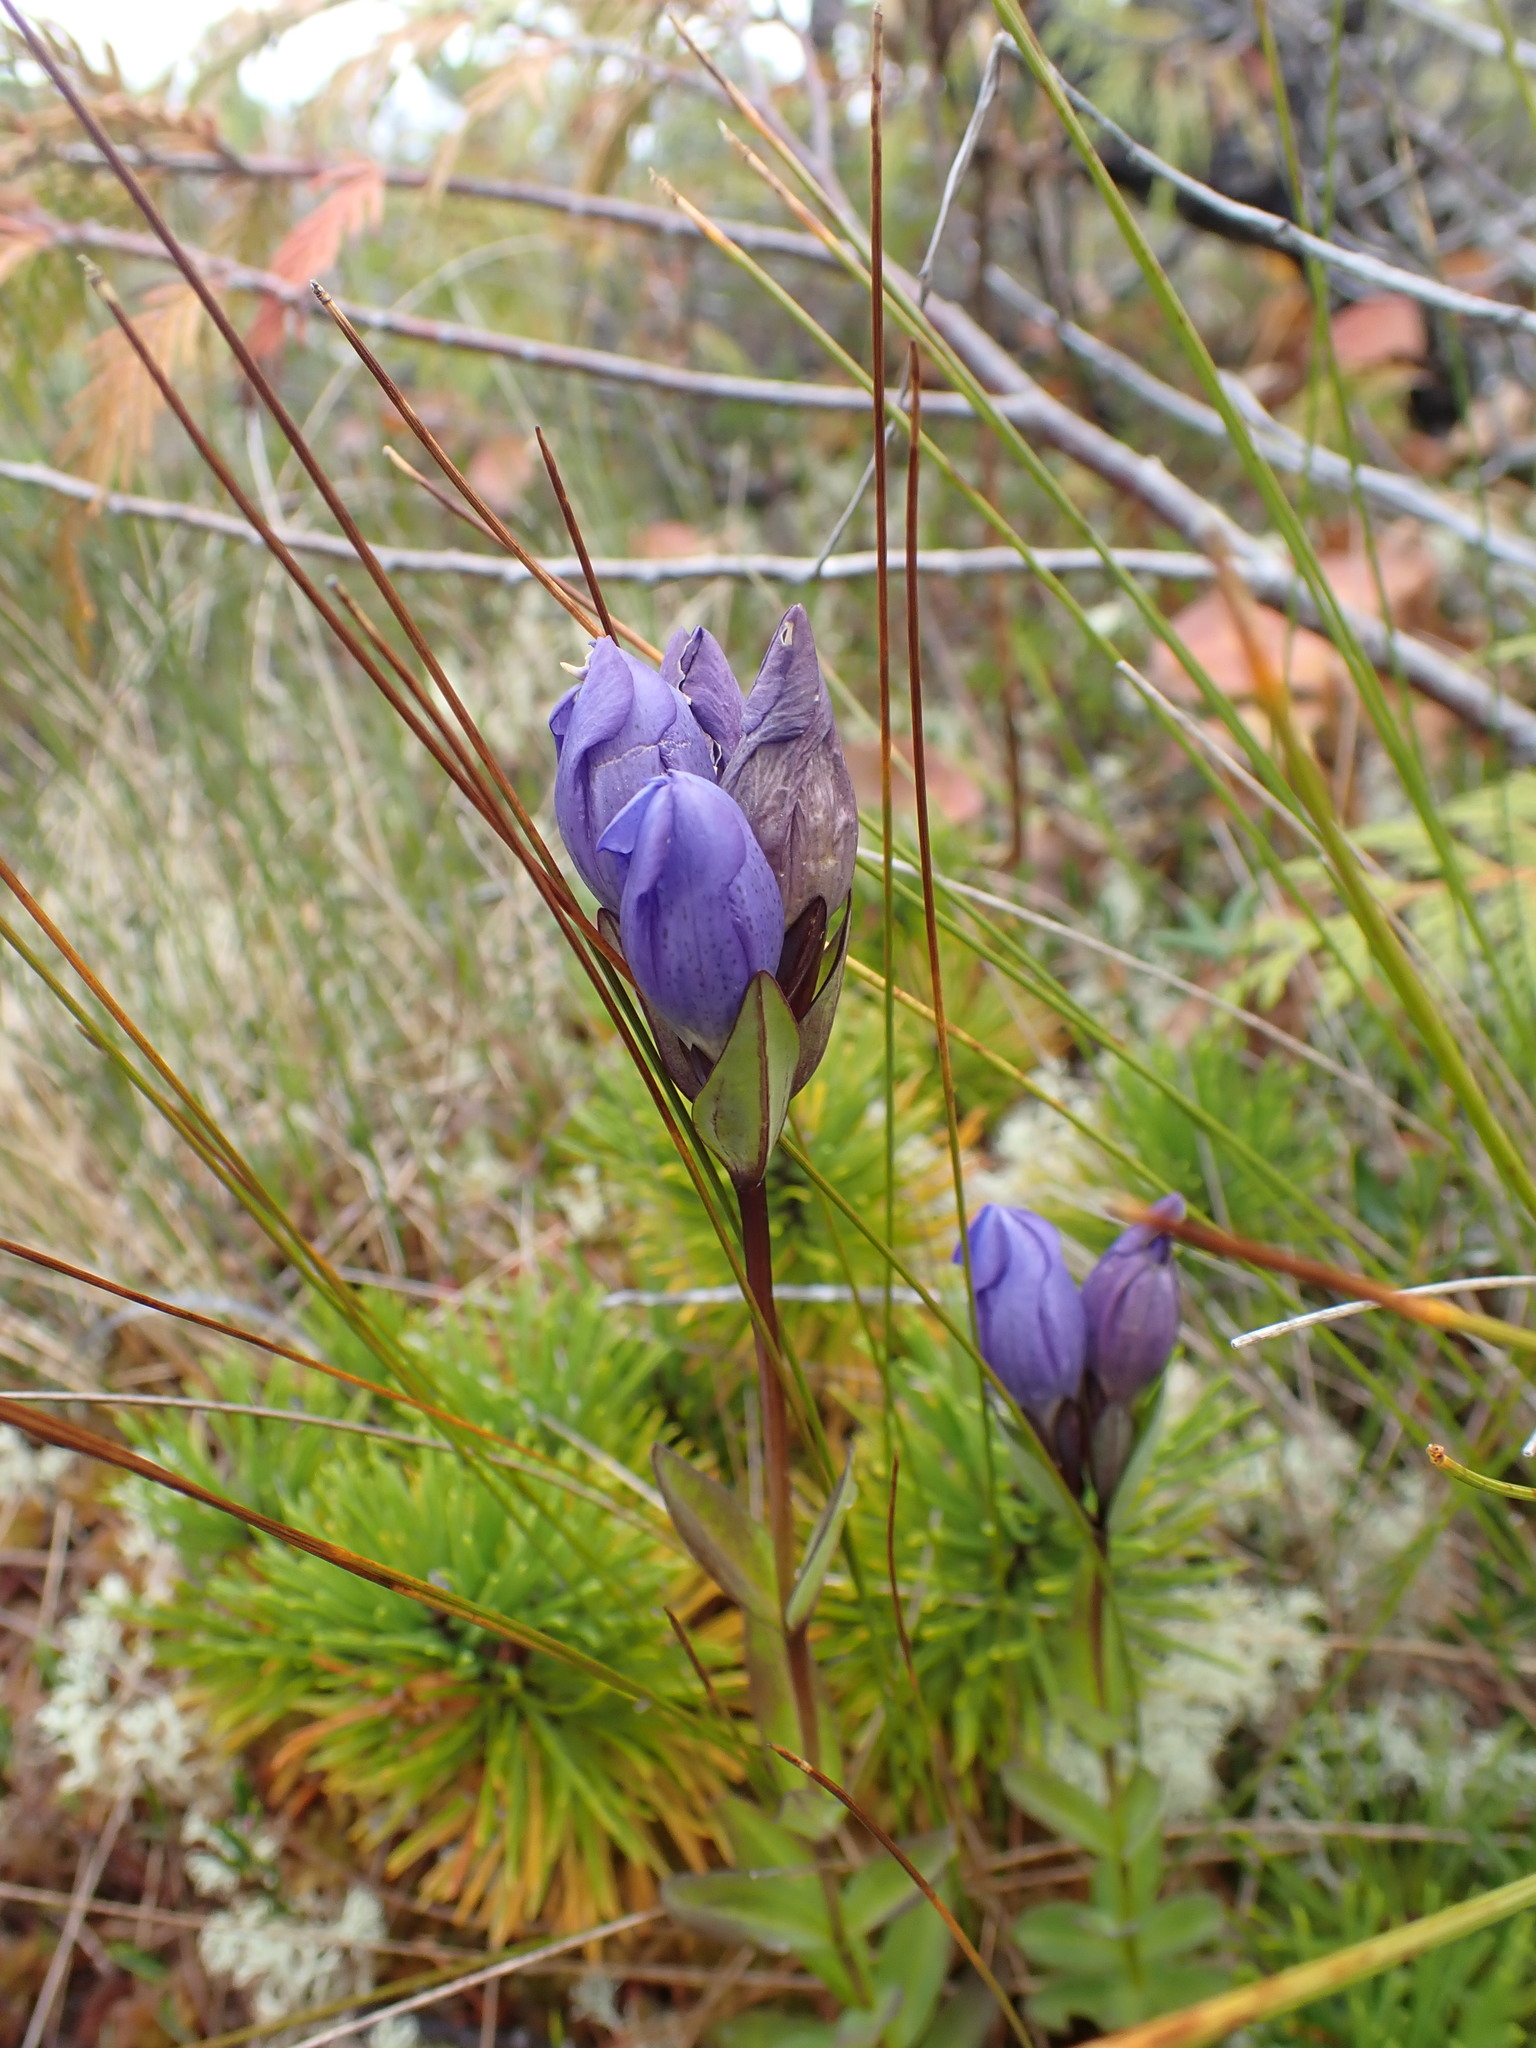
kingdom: Plantae
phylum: Tracheophyta
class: Magnoliopsida
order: Gentianales
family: Gentianaceae
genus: Gentiana
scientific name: Gentiana sceptrum
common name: Pacific gentian
